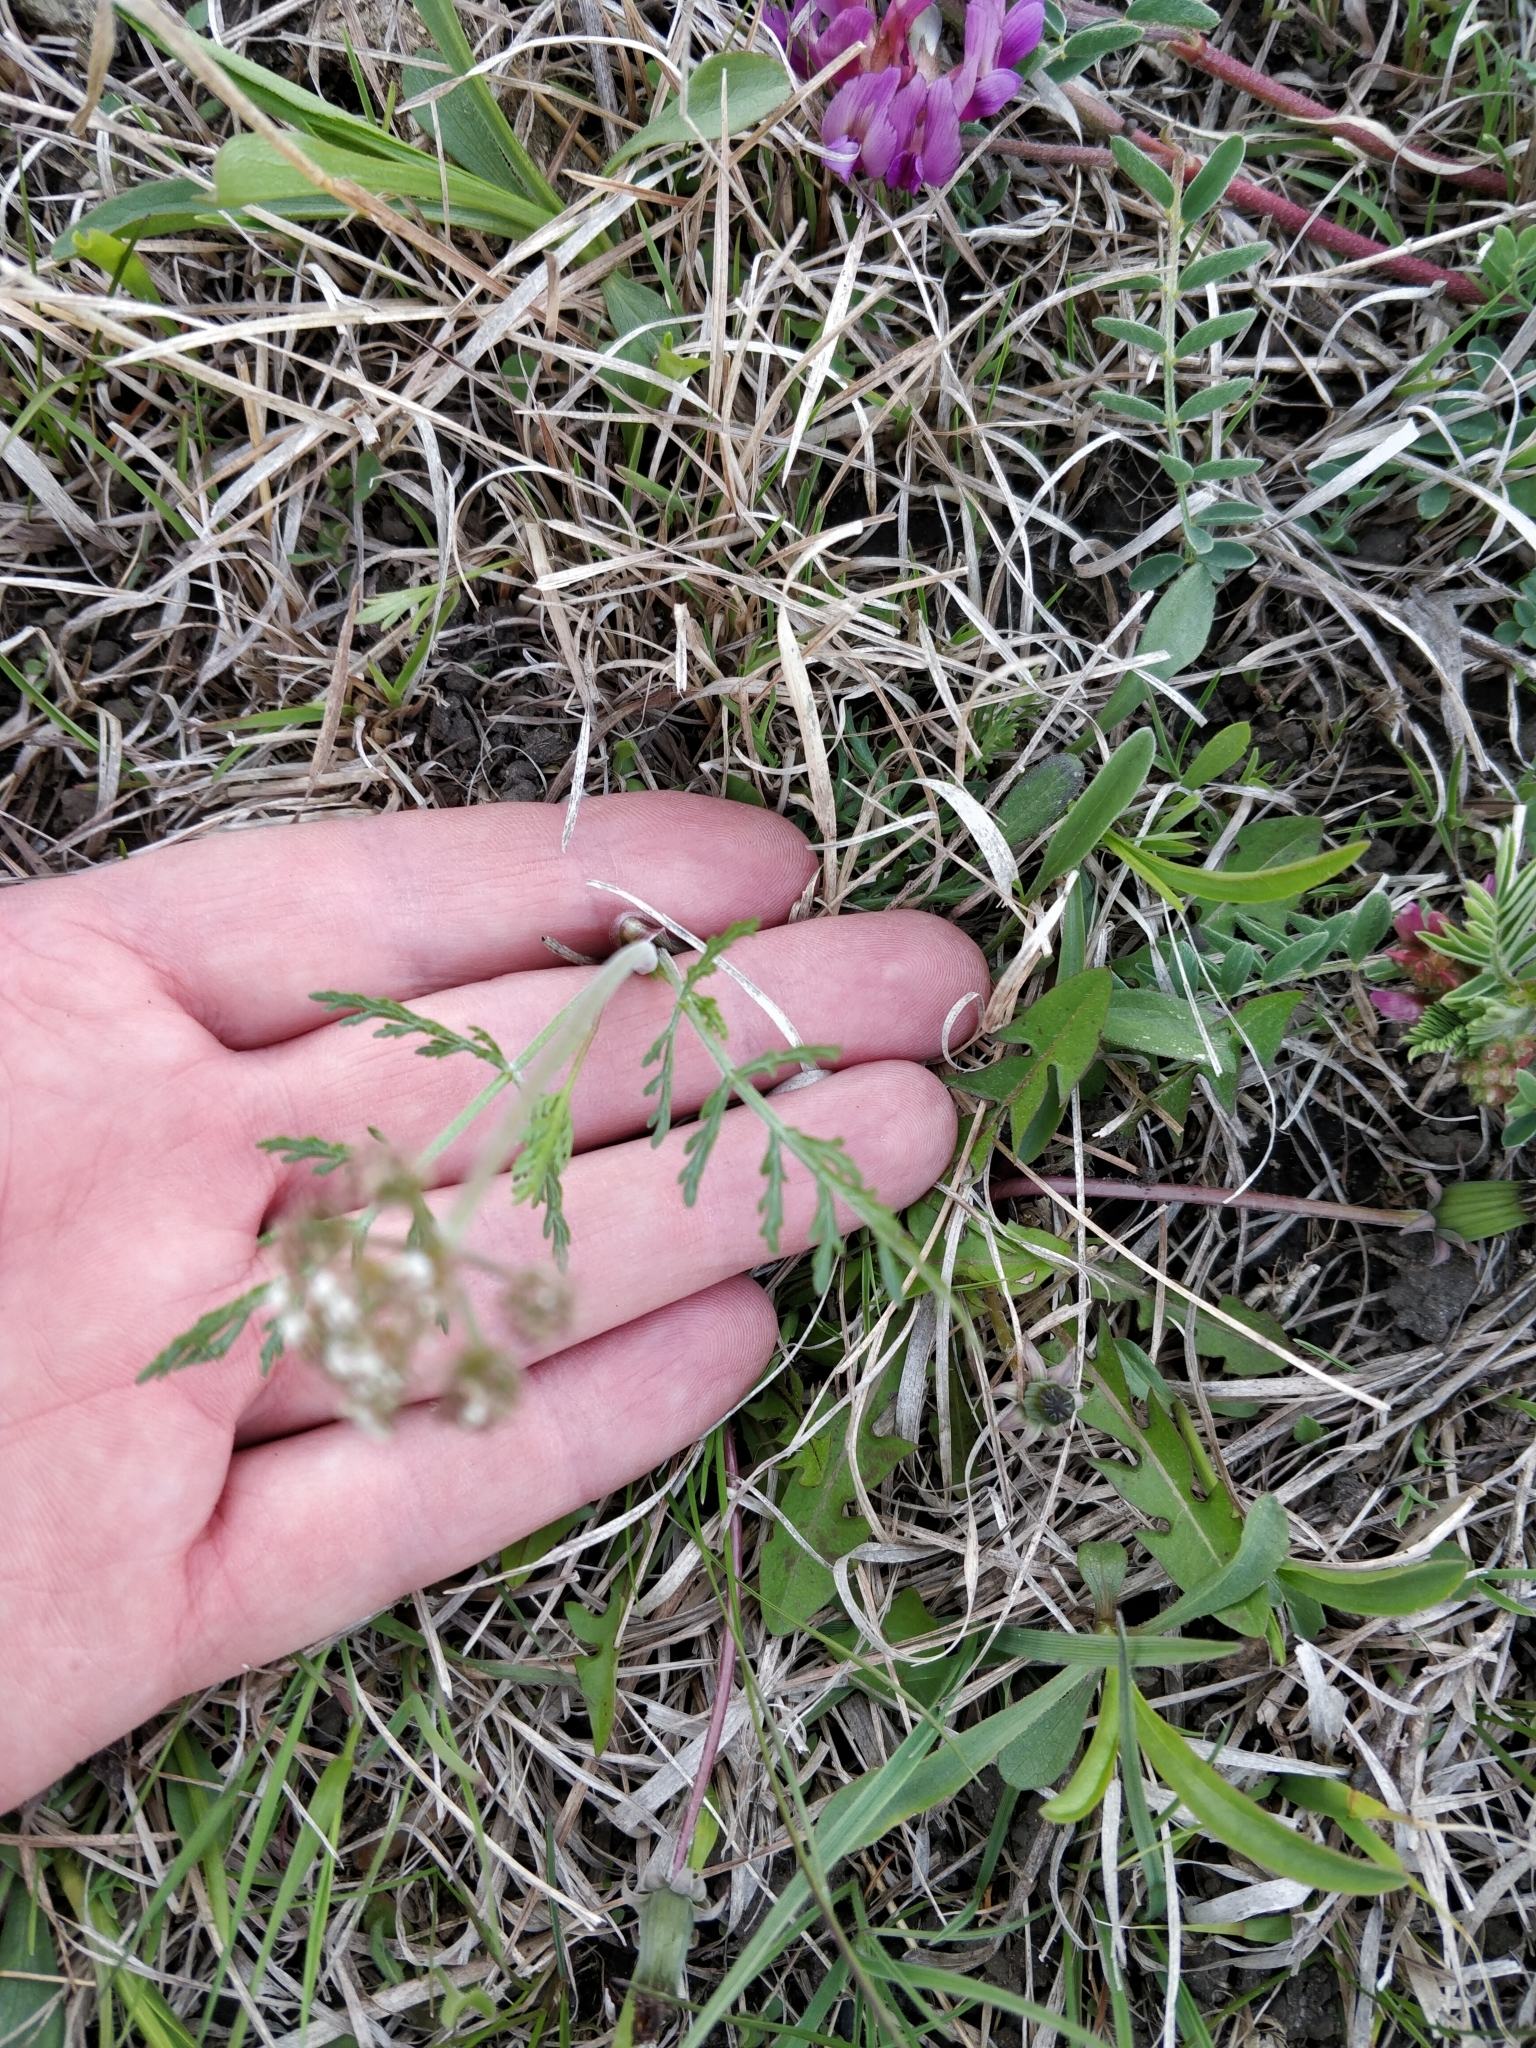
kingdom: Plantae
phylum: Tracheophyta
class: Magnoliopsida
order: Apiales
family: Apiaceae
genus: Lomatium
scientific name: Lomatium orientale
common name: Eastern cous
